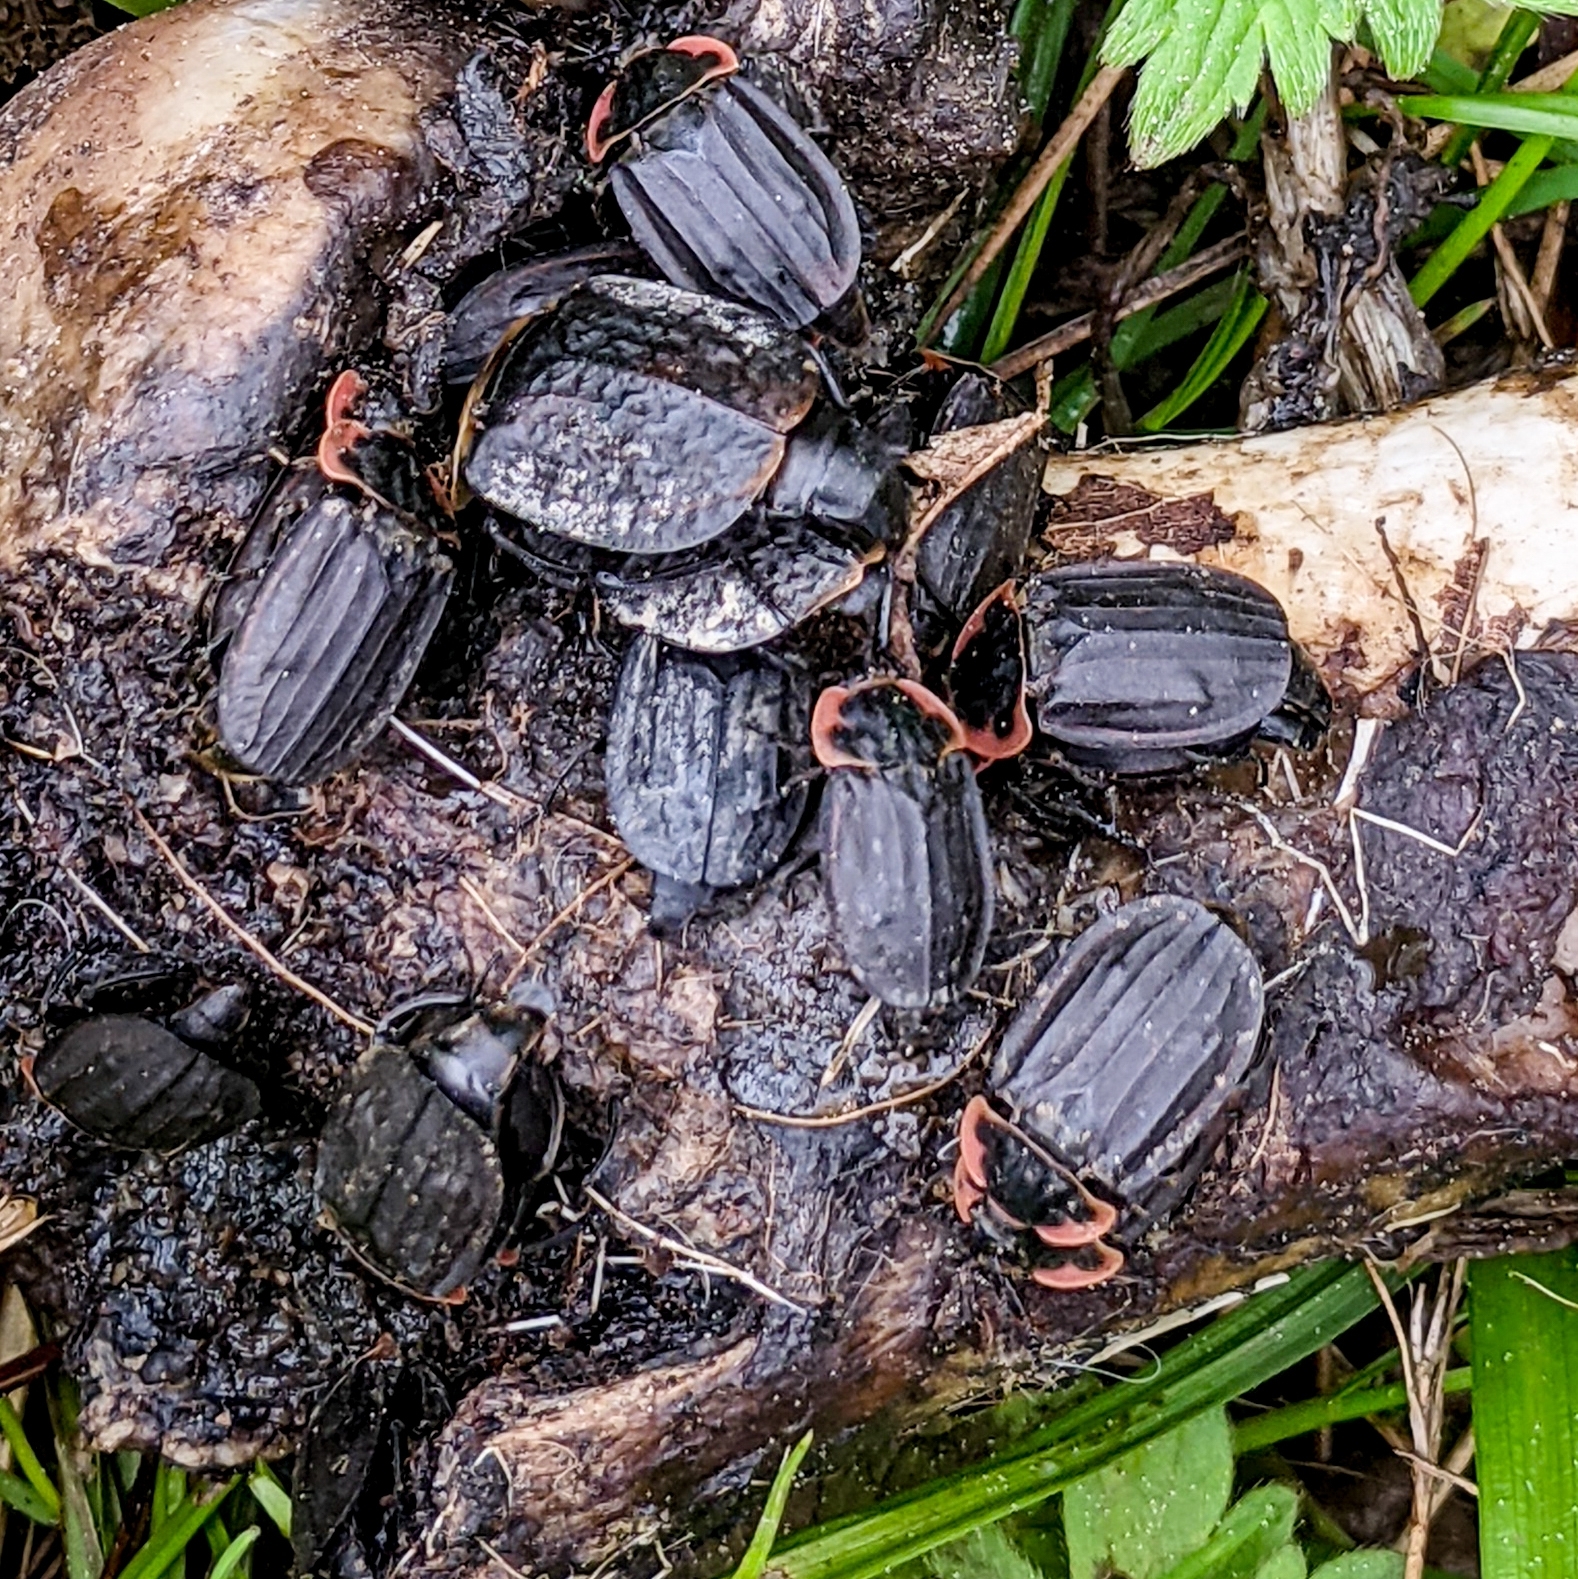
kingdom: Animalia
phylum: Arthropoda
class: Insecta
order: Coleoptera
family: Staphylinidae
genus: Oiceoptoma
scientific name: Oiceoptoma noveboracense
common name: Margined carrion beetle
